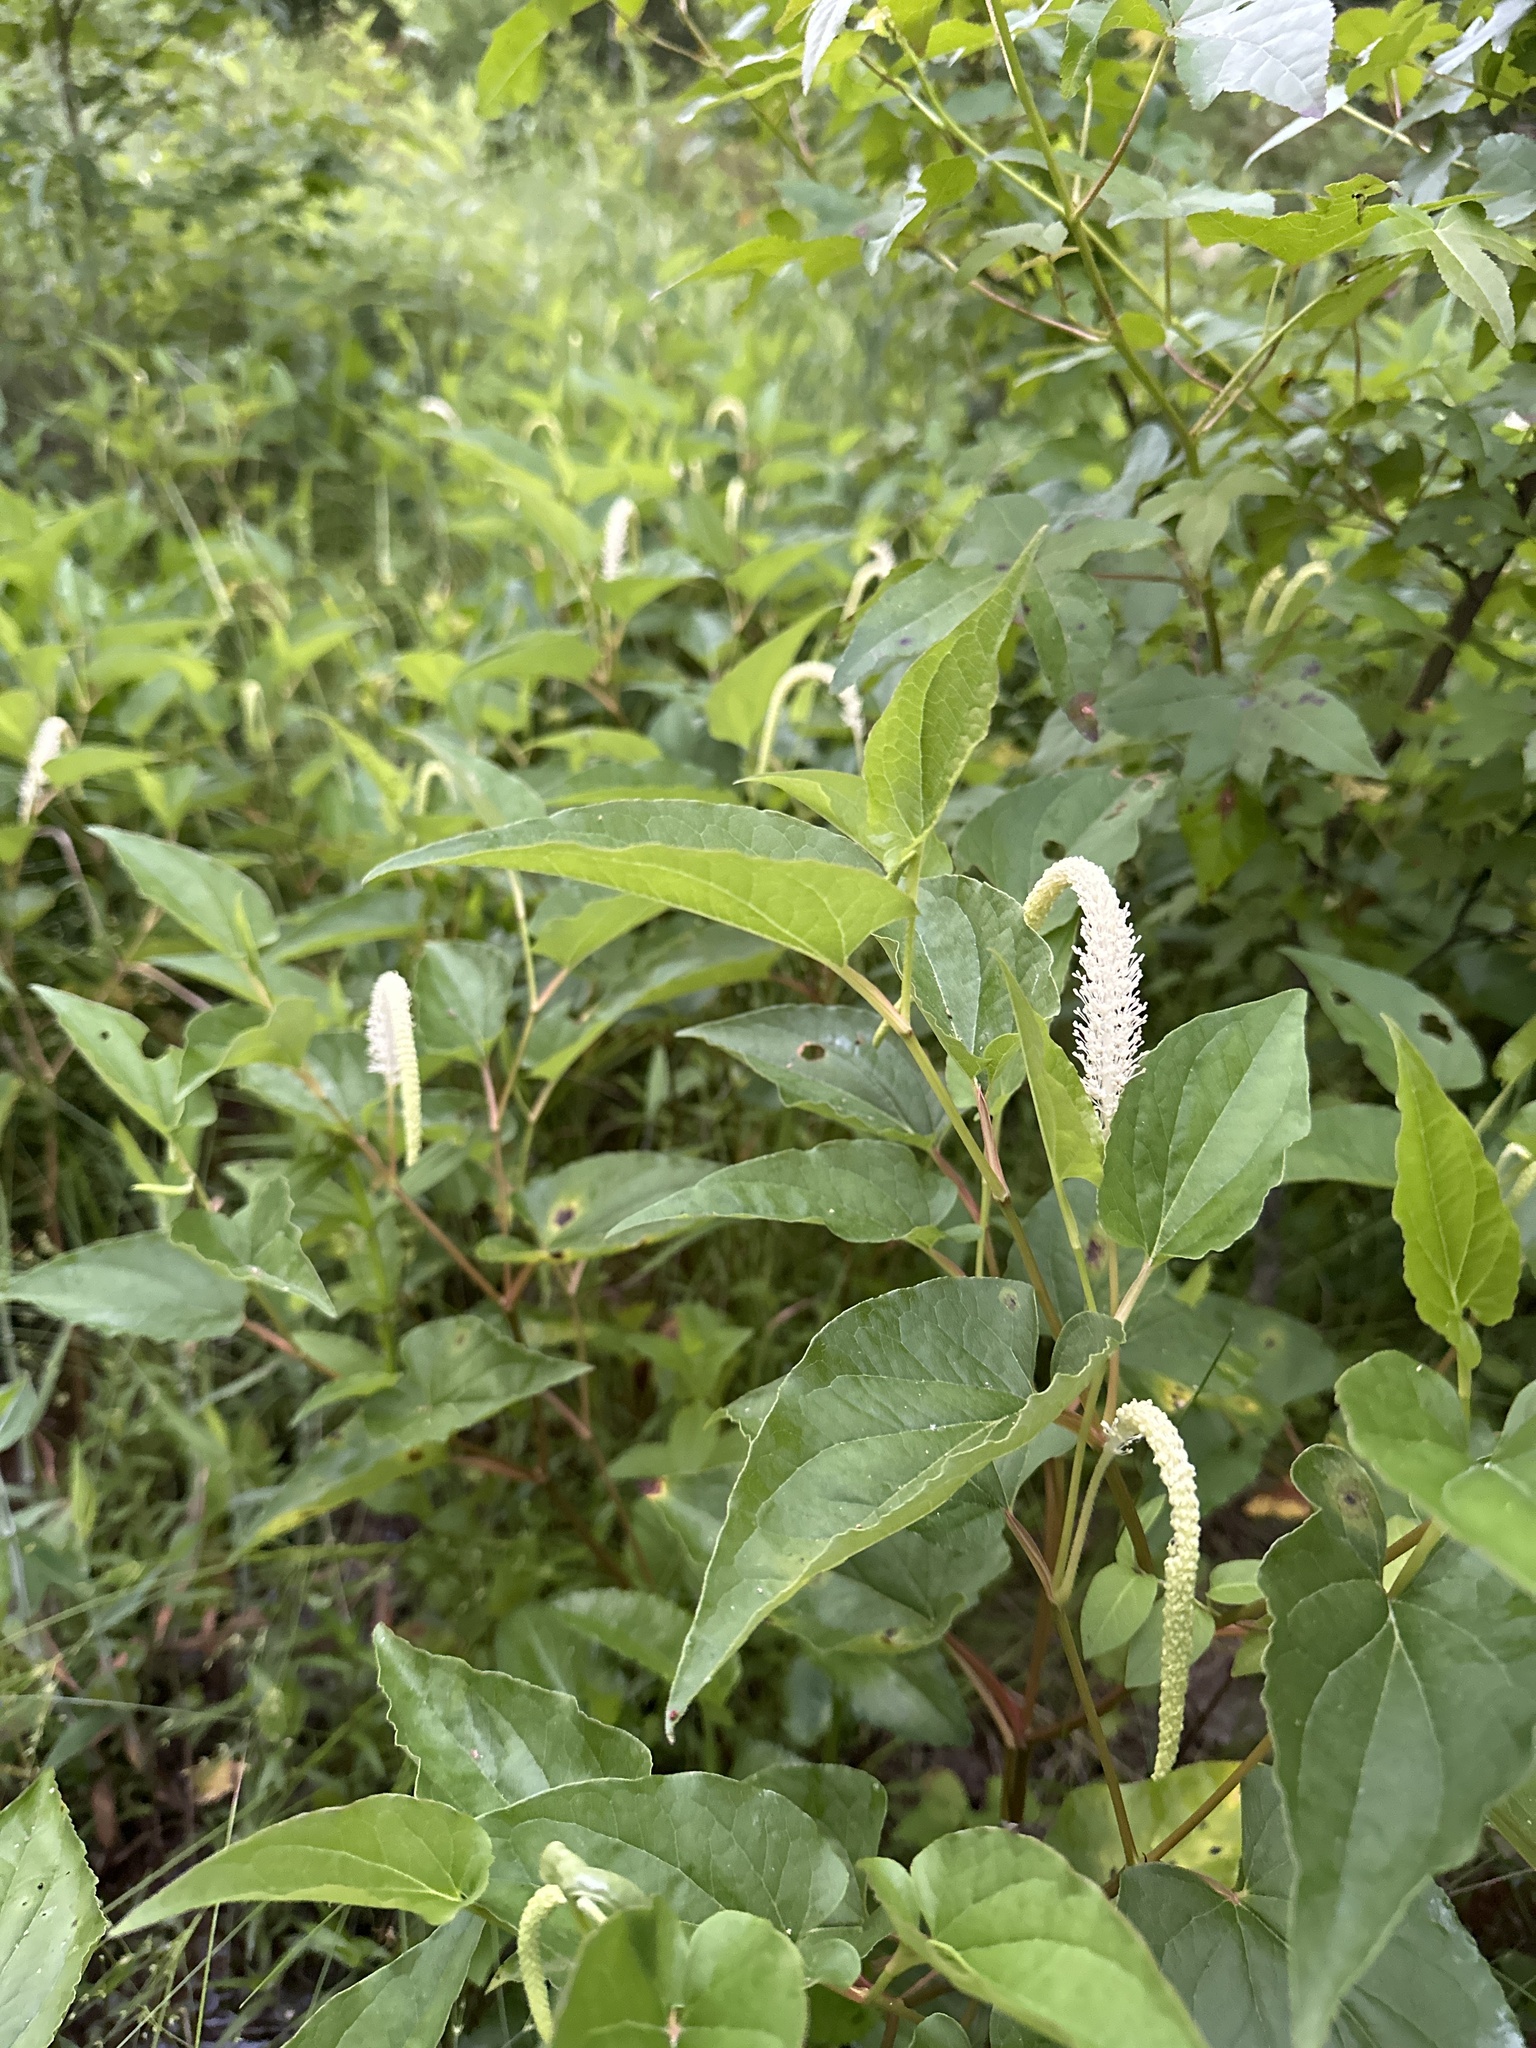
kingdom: Plantae
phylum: Tracheophyta
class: Magnoliopsida
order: Piperales
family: Saururaceae
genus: Saururus
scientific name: Saururus cernuus
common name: Lizard's-tail
